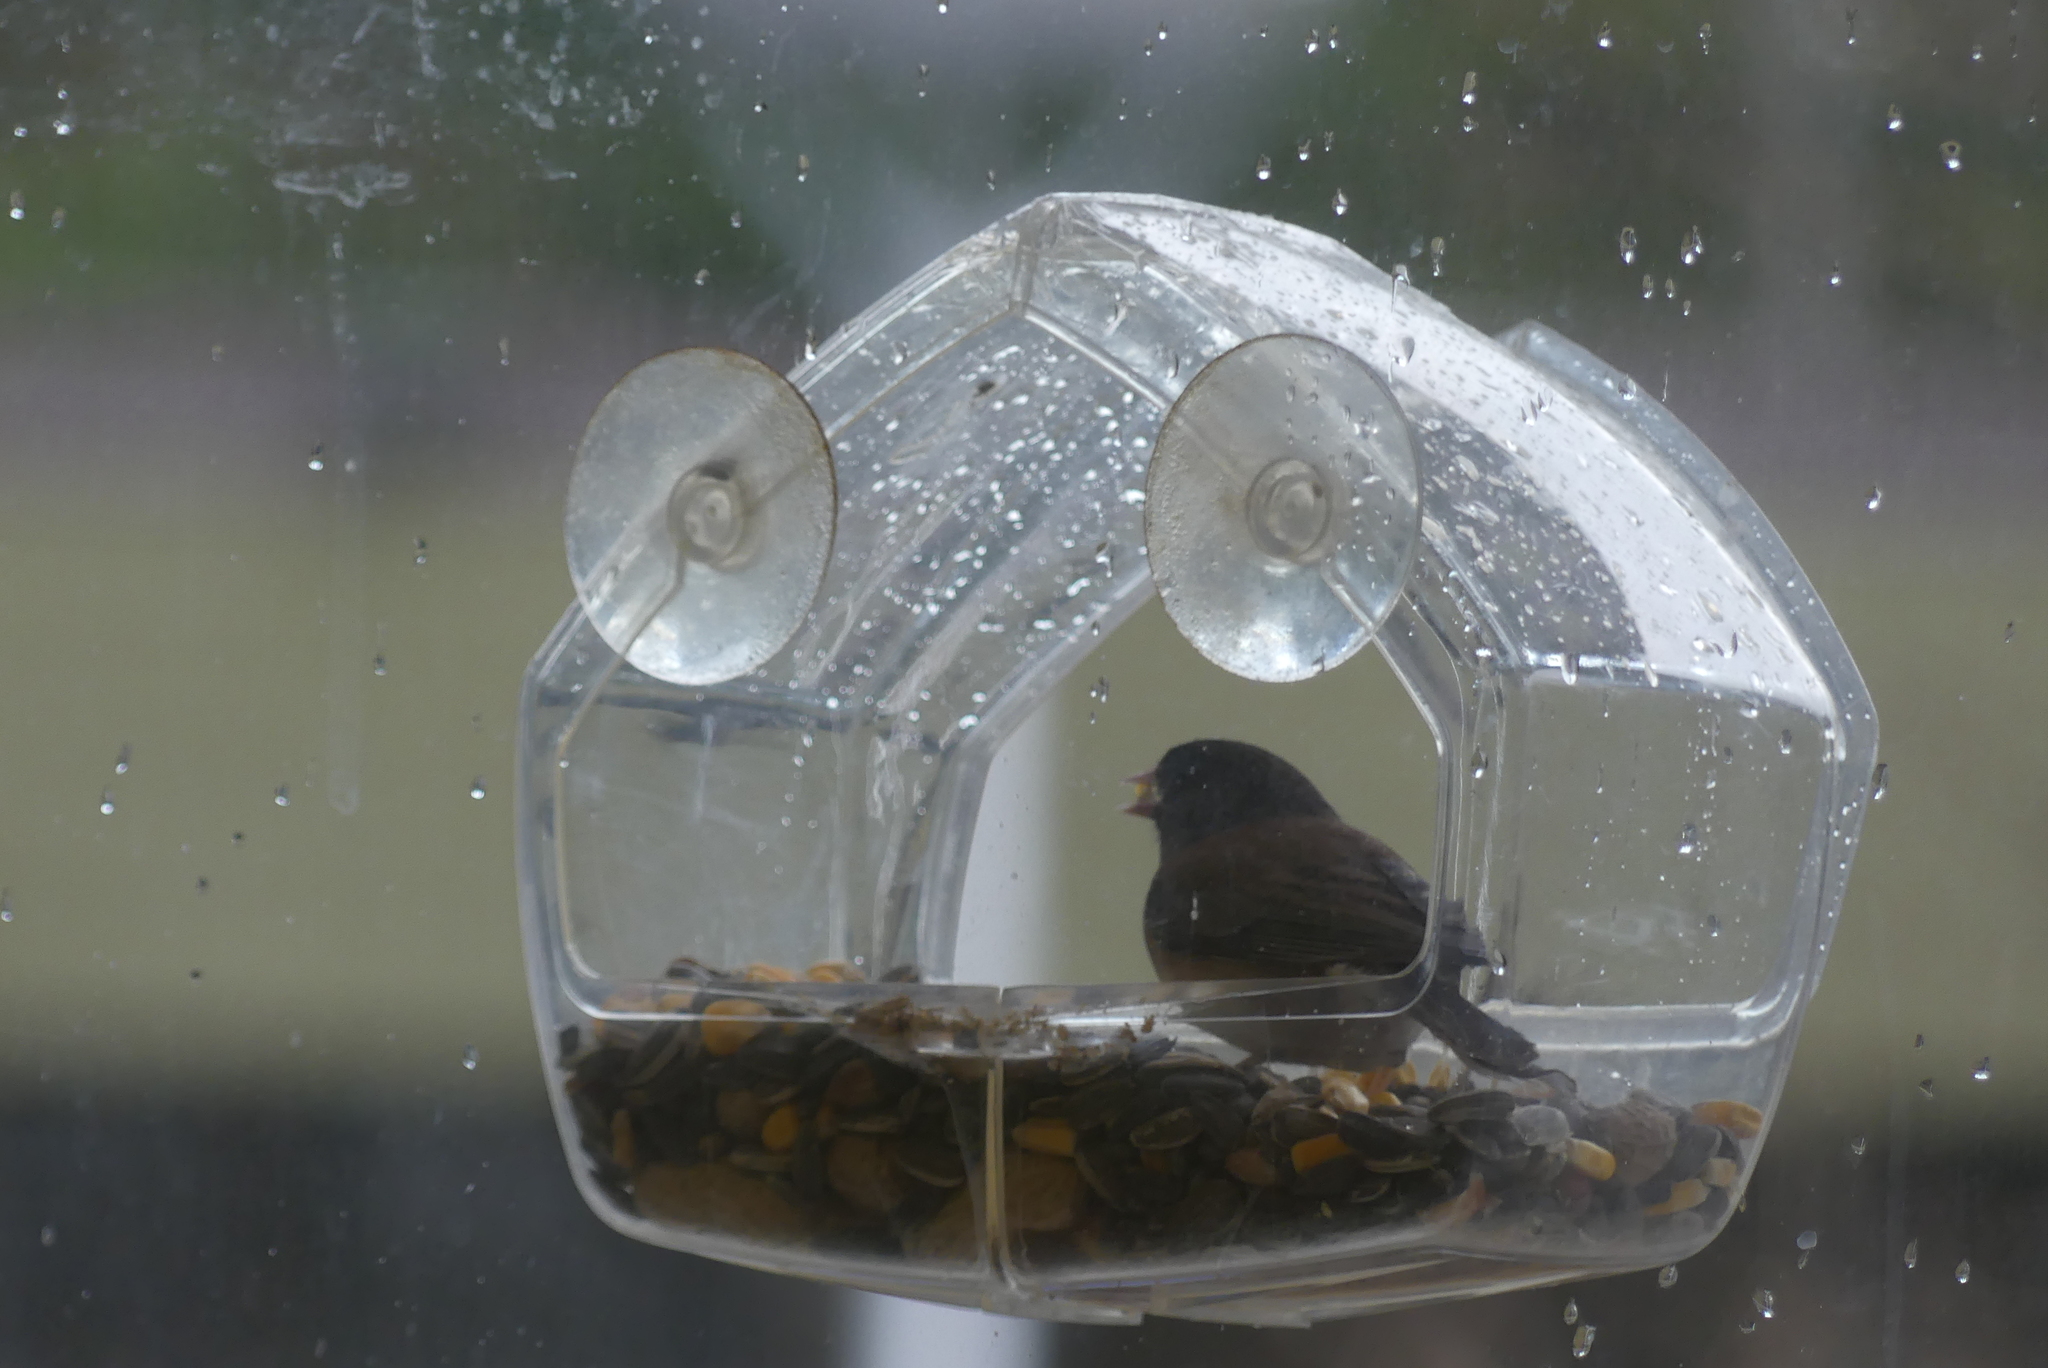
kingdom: Animalia
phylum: Chordata
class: Aves
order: Passeriformes
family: Passerellidae
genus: Junco
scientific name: Junco hyemalis
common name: Dark-eyed junco
